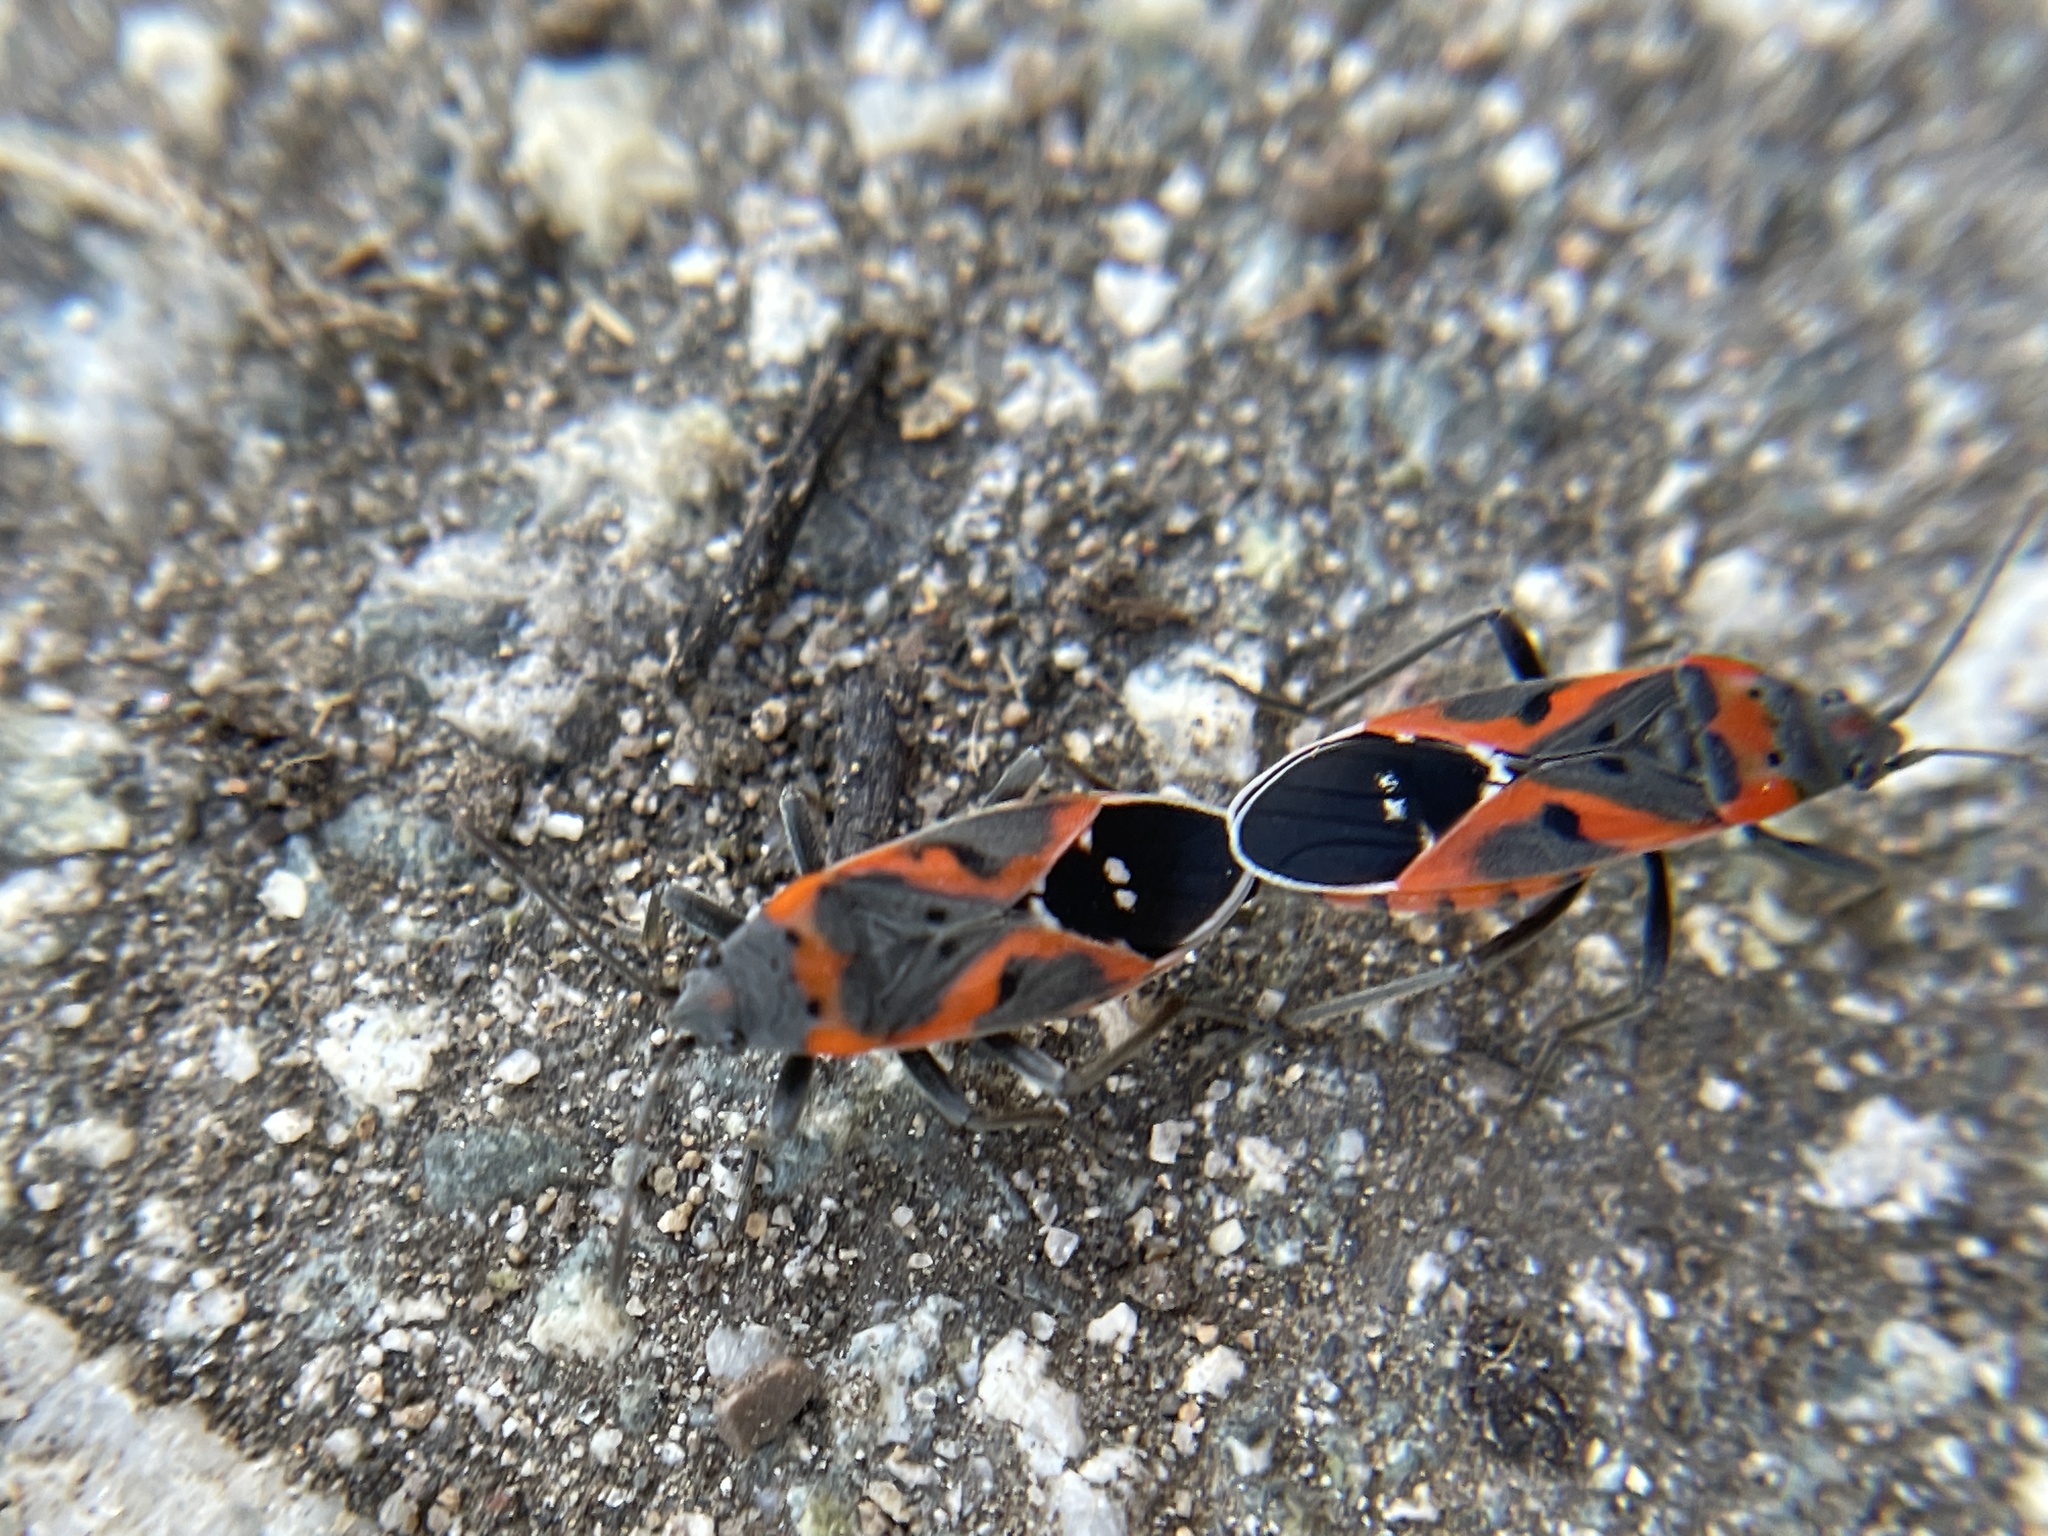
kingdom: Animalia
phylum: Arthropoda
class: Insecta
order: Hemiptera
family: Lygaeidae
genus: Lygaeus
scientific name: Lygaeus kalmii
